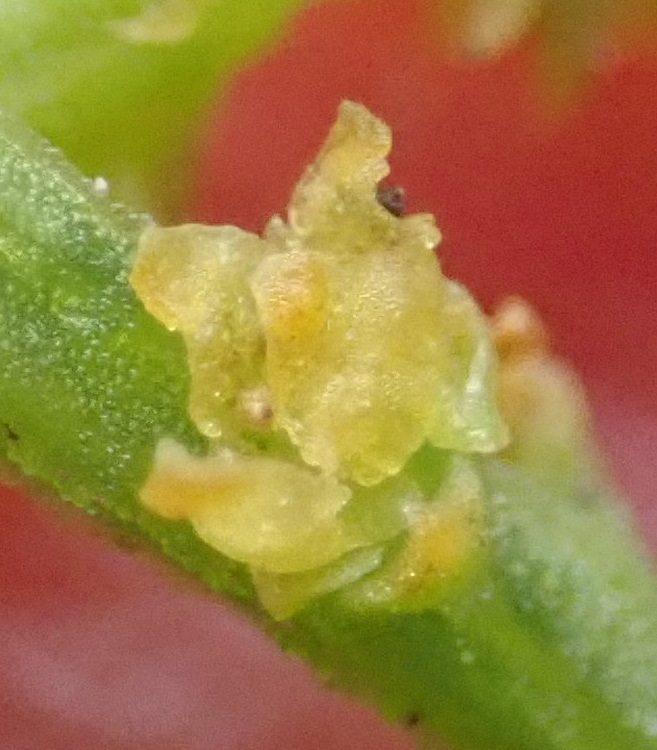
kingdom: Plantae
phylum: Tracheophyta
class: Magnoliopsida
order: Santalales
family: Thesiaceae
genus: Thesium
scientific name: Thesium fragile
